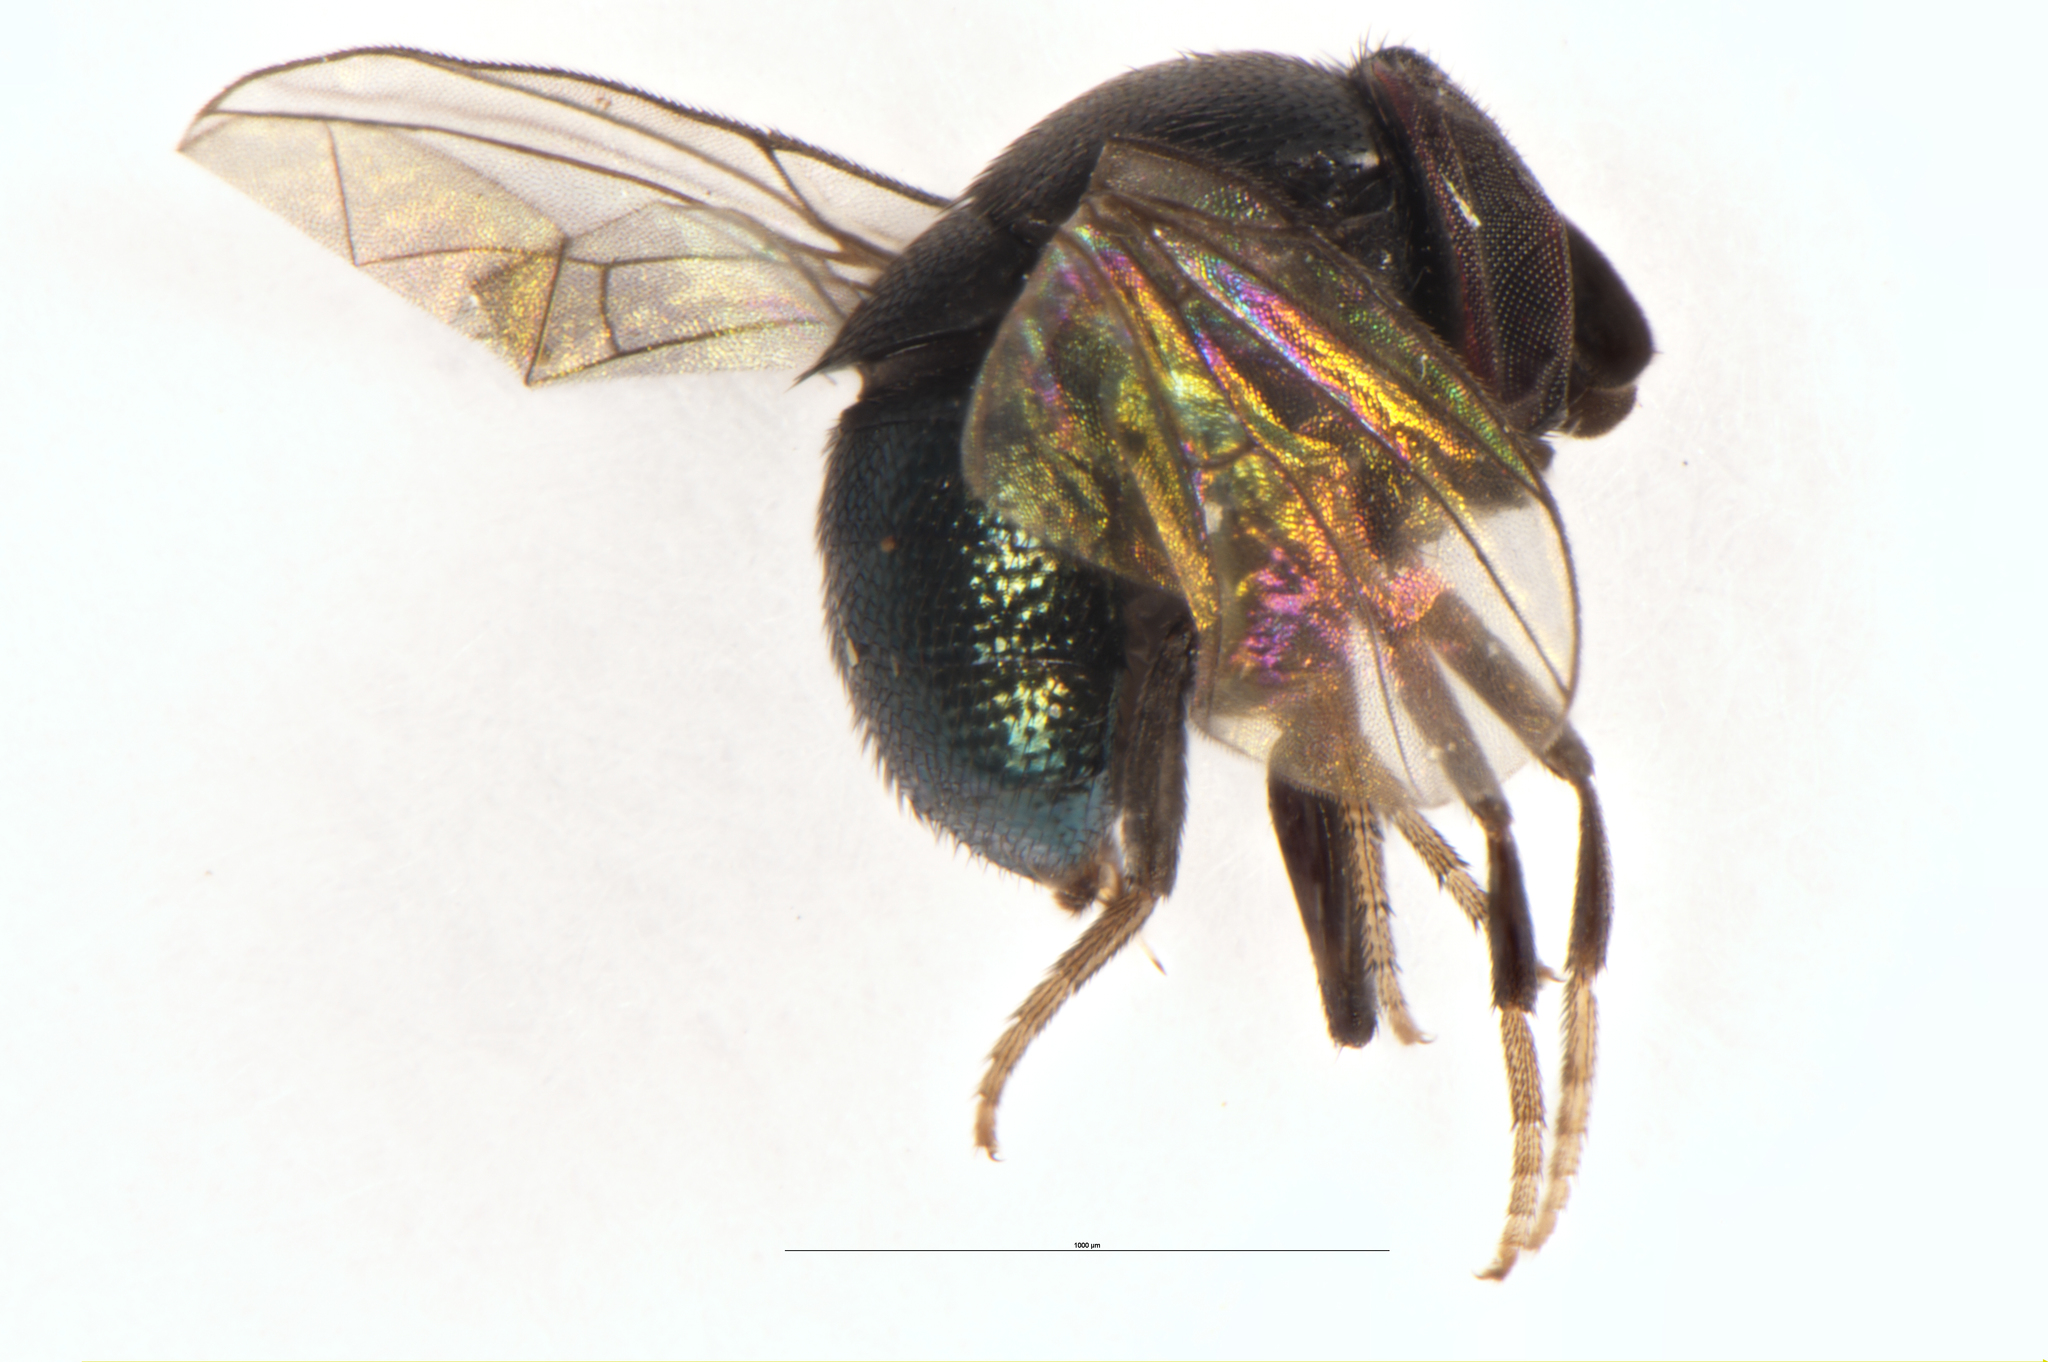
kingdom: Animalia
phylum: Arthropoda
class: Insecta
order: Diptera
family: Cryptochetidae
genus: Cryptochetum
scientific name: Cryptochetum iceryae
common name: Cottony cushion scale fly
